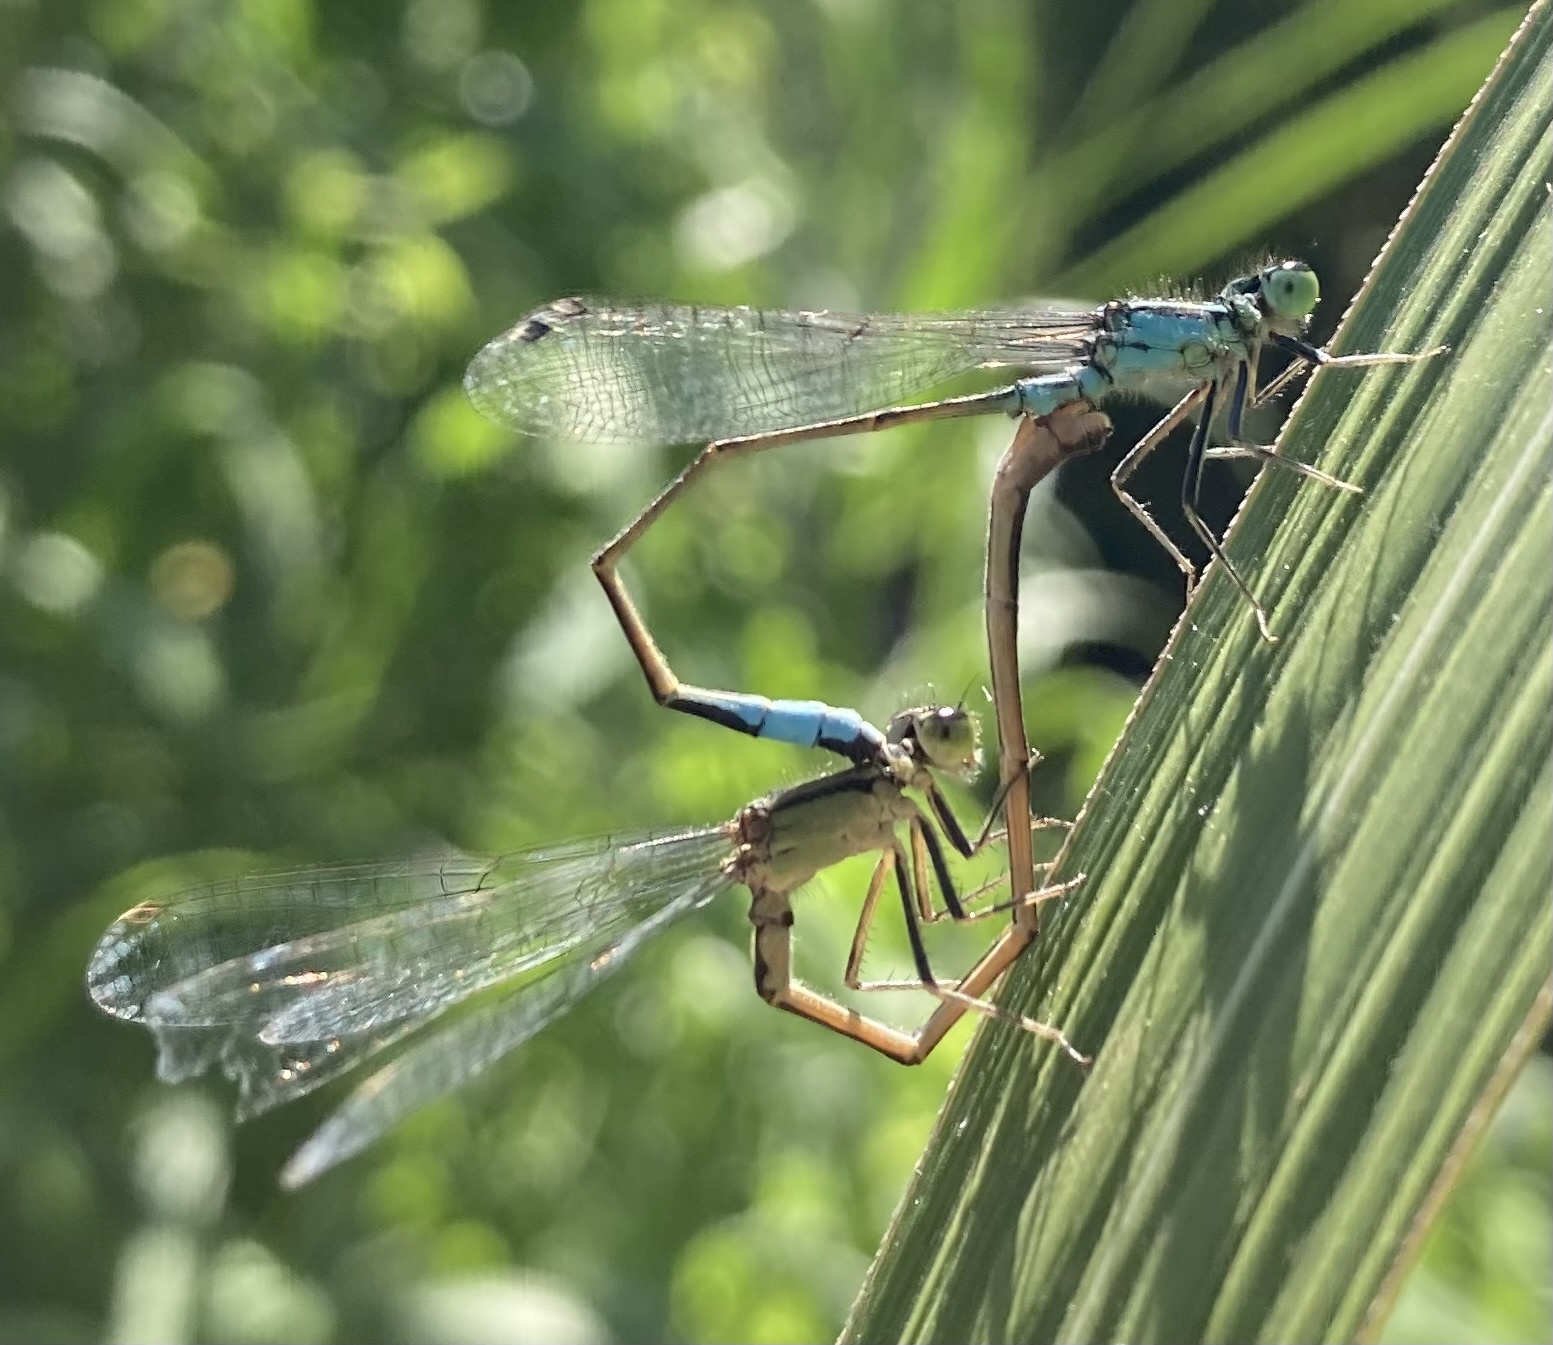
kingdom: Animalia
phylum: Arthropoda
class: Insecta
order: Odonata
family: Coenagrionidae
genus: Ischnura
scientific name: Ischnura elegans
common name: Blue-tailed damselfly
